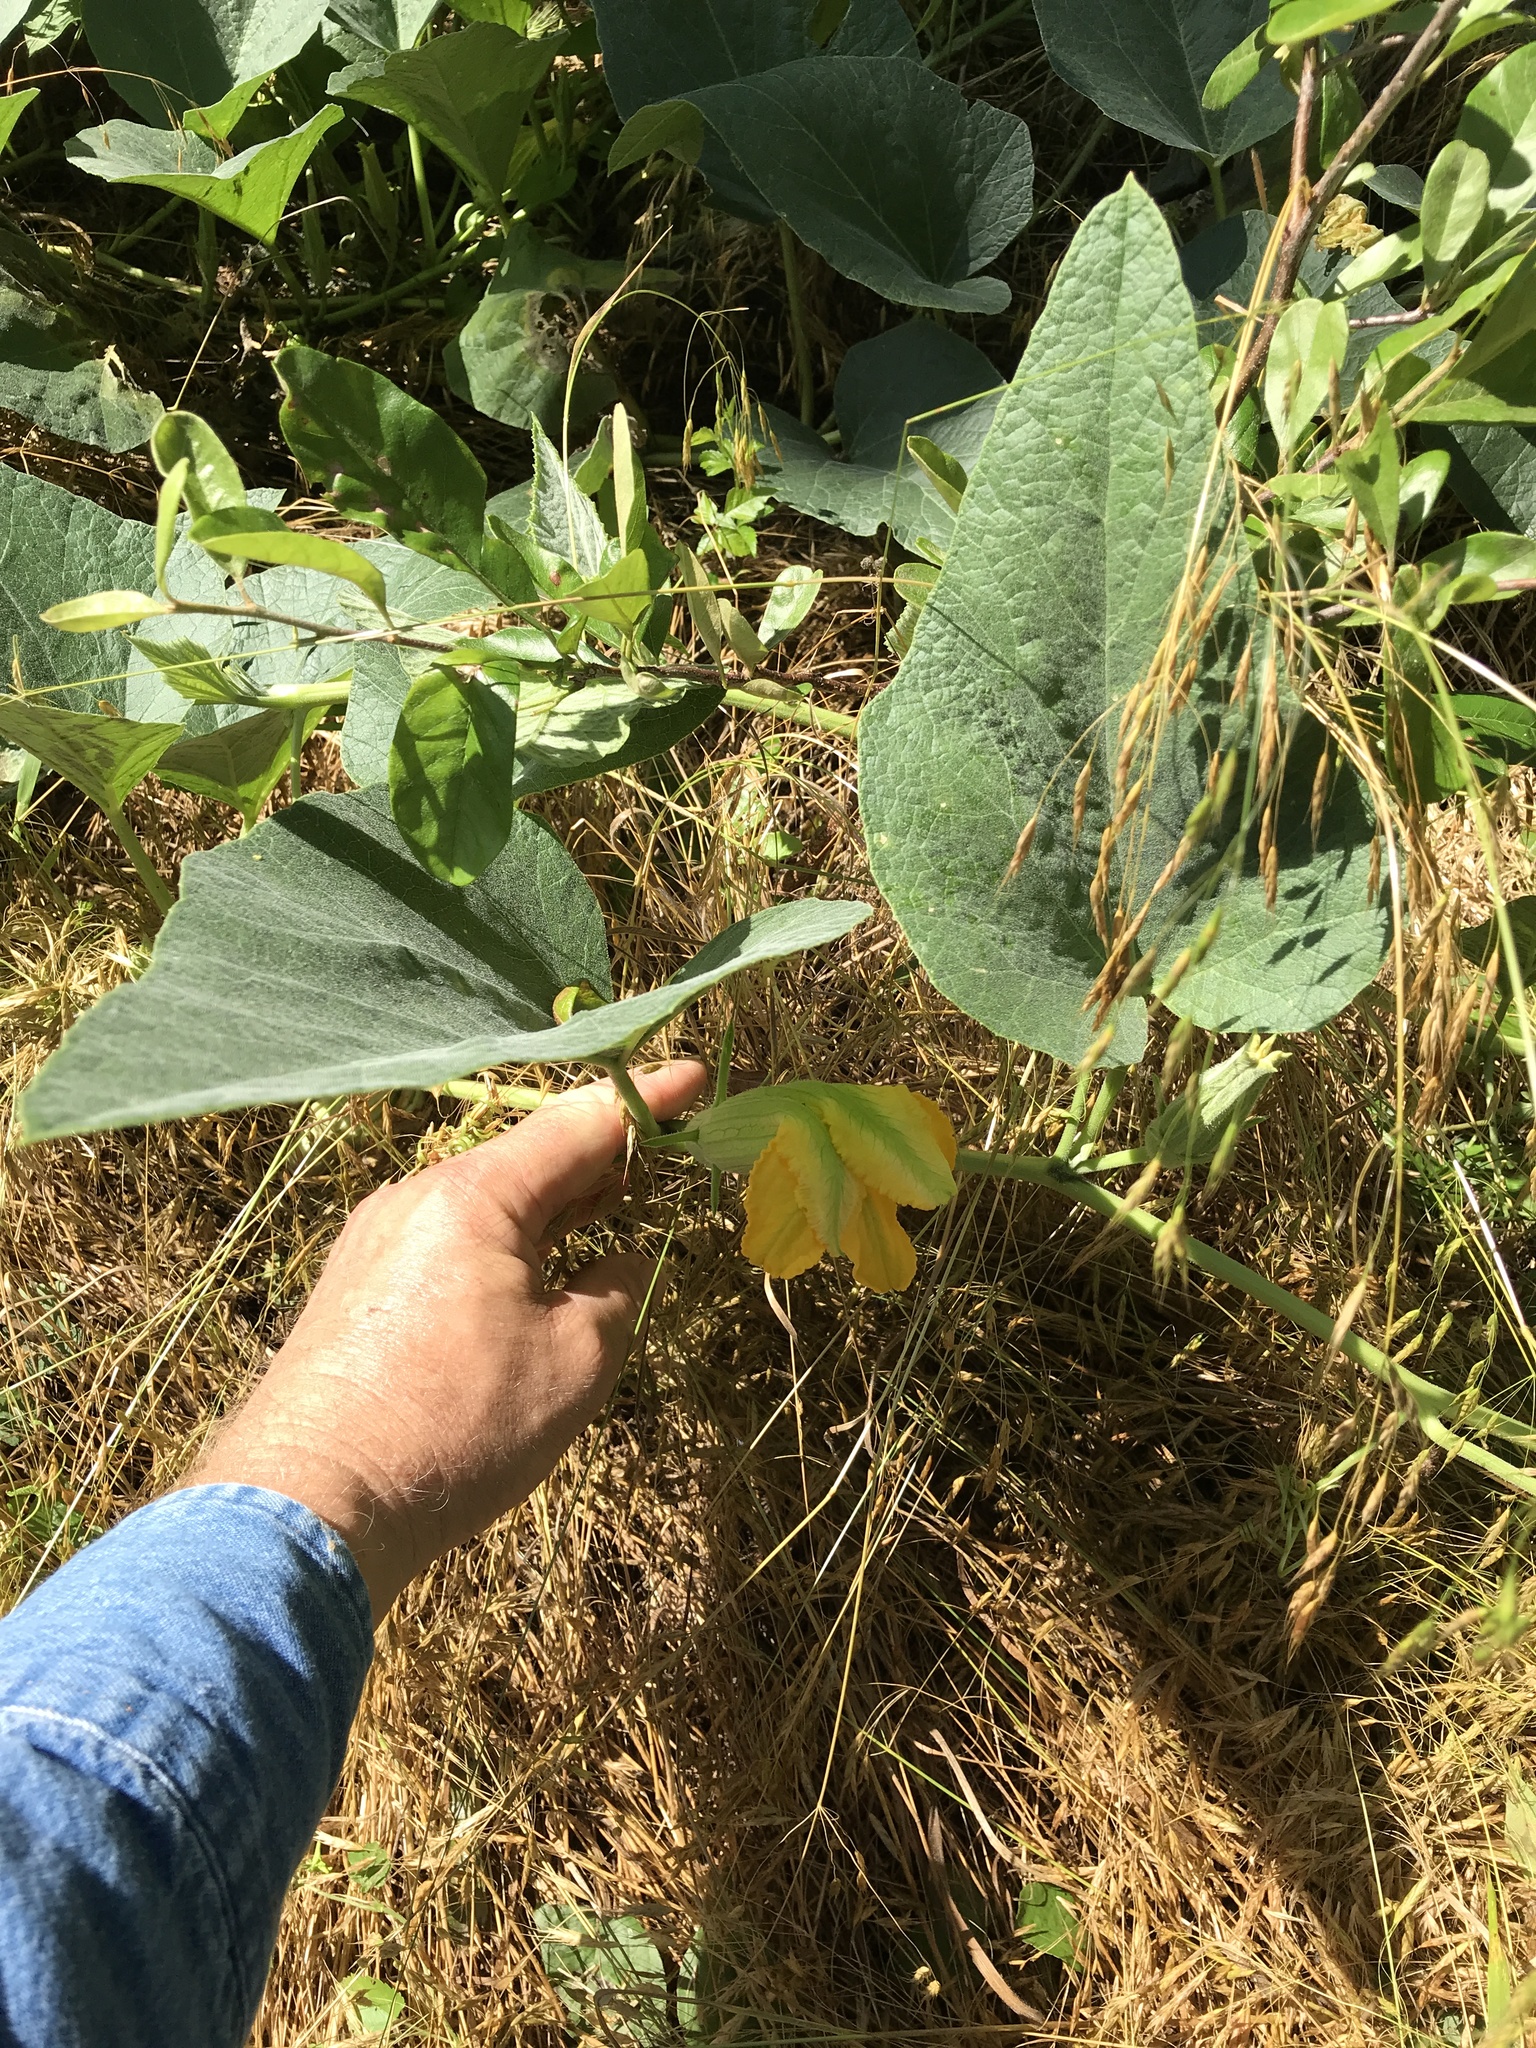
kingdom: Plantae
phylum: Tracheophyta
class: Magnoliopsida
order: Cucurbitales
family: Cucurbitaceae
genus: Cucurbita
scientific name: Cucurbita foetidissima
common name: Buffalo gourd
